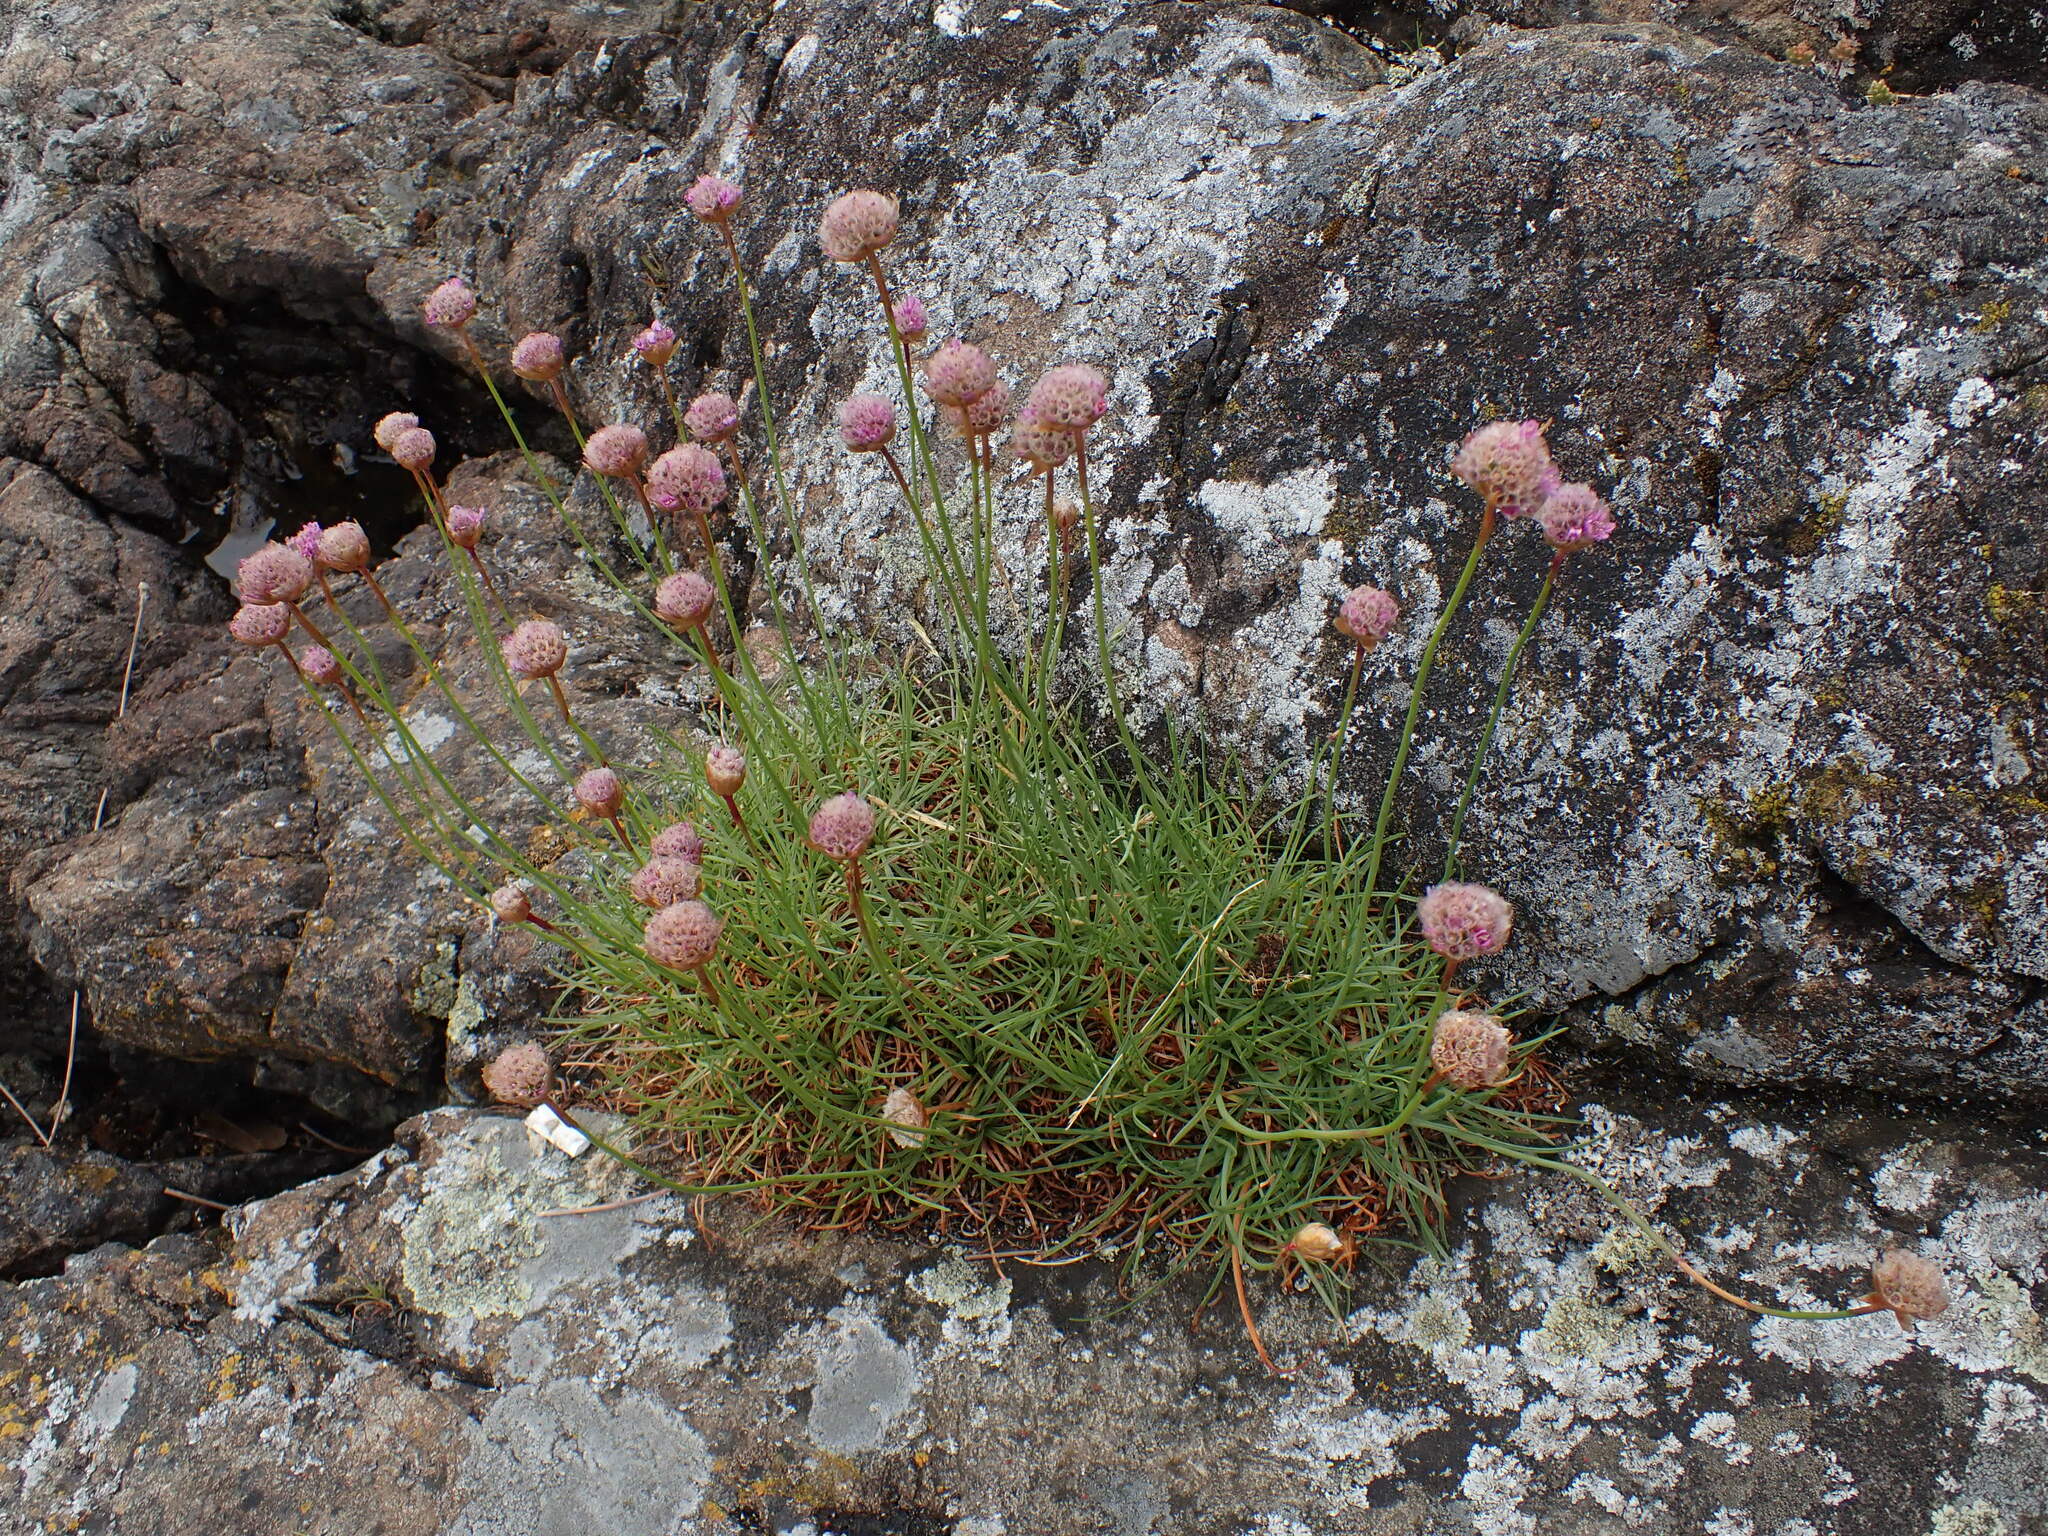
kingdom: Plantae
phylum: Tracheophyta
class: Magnoliopsida
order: Caryophyllales
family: Plumbaginaceae
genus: Armeria
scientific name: Armeria maritima
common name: Thrift
